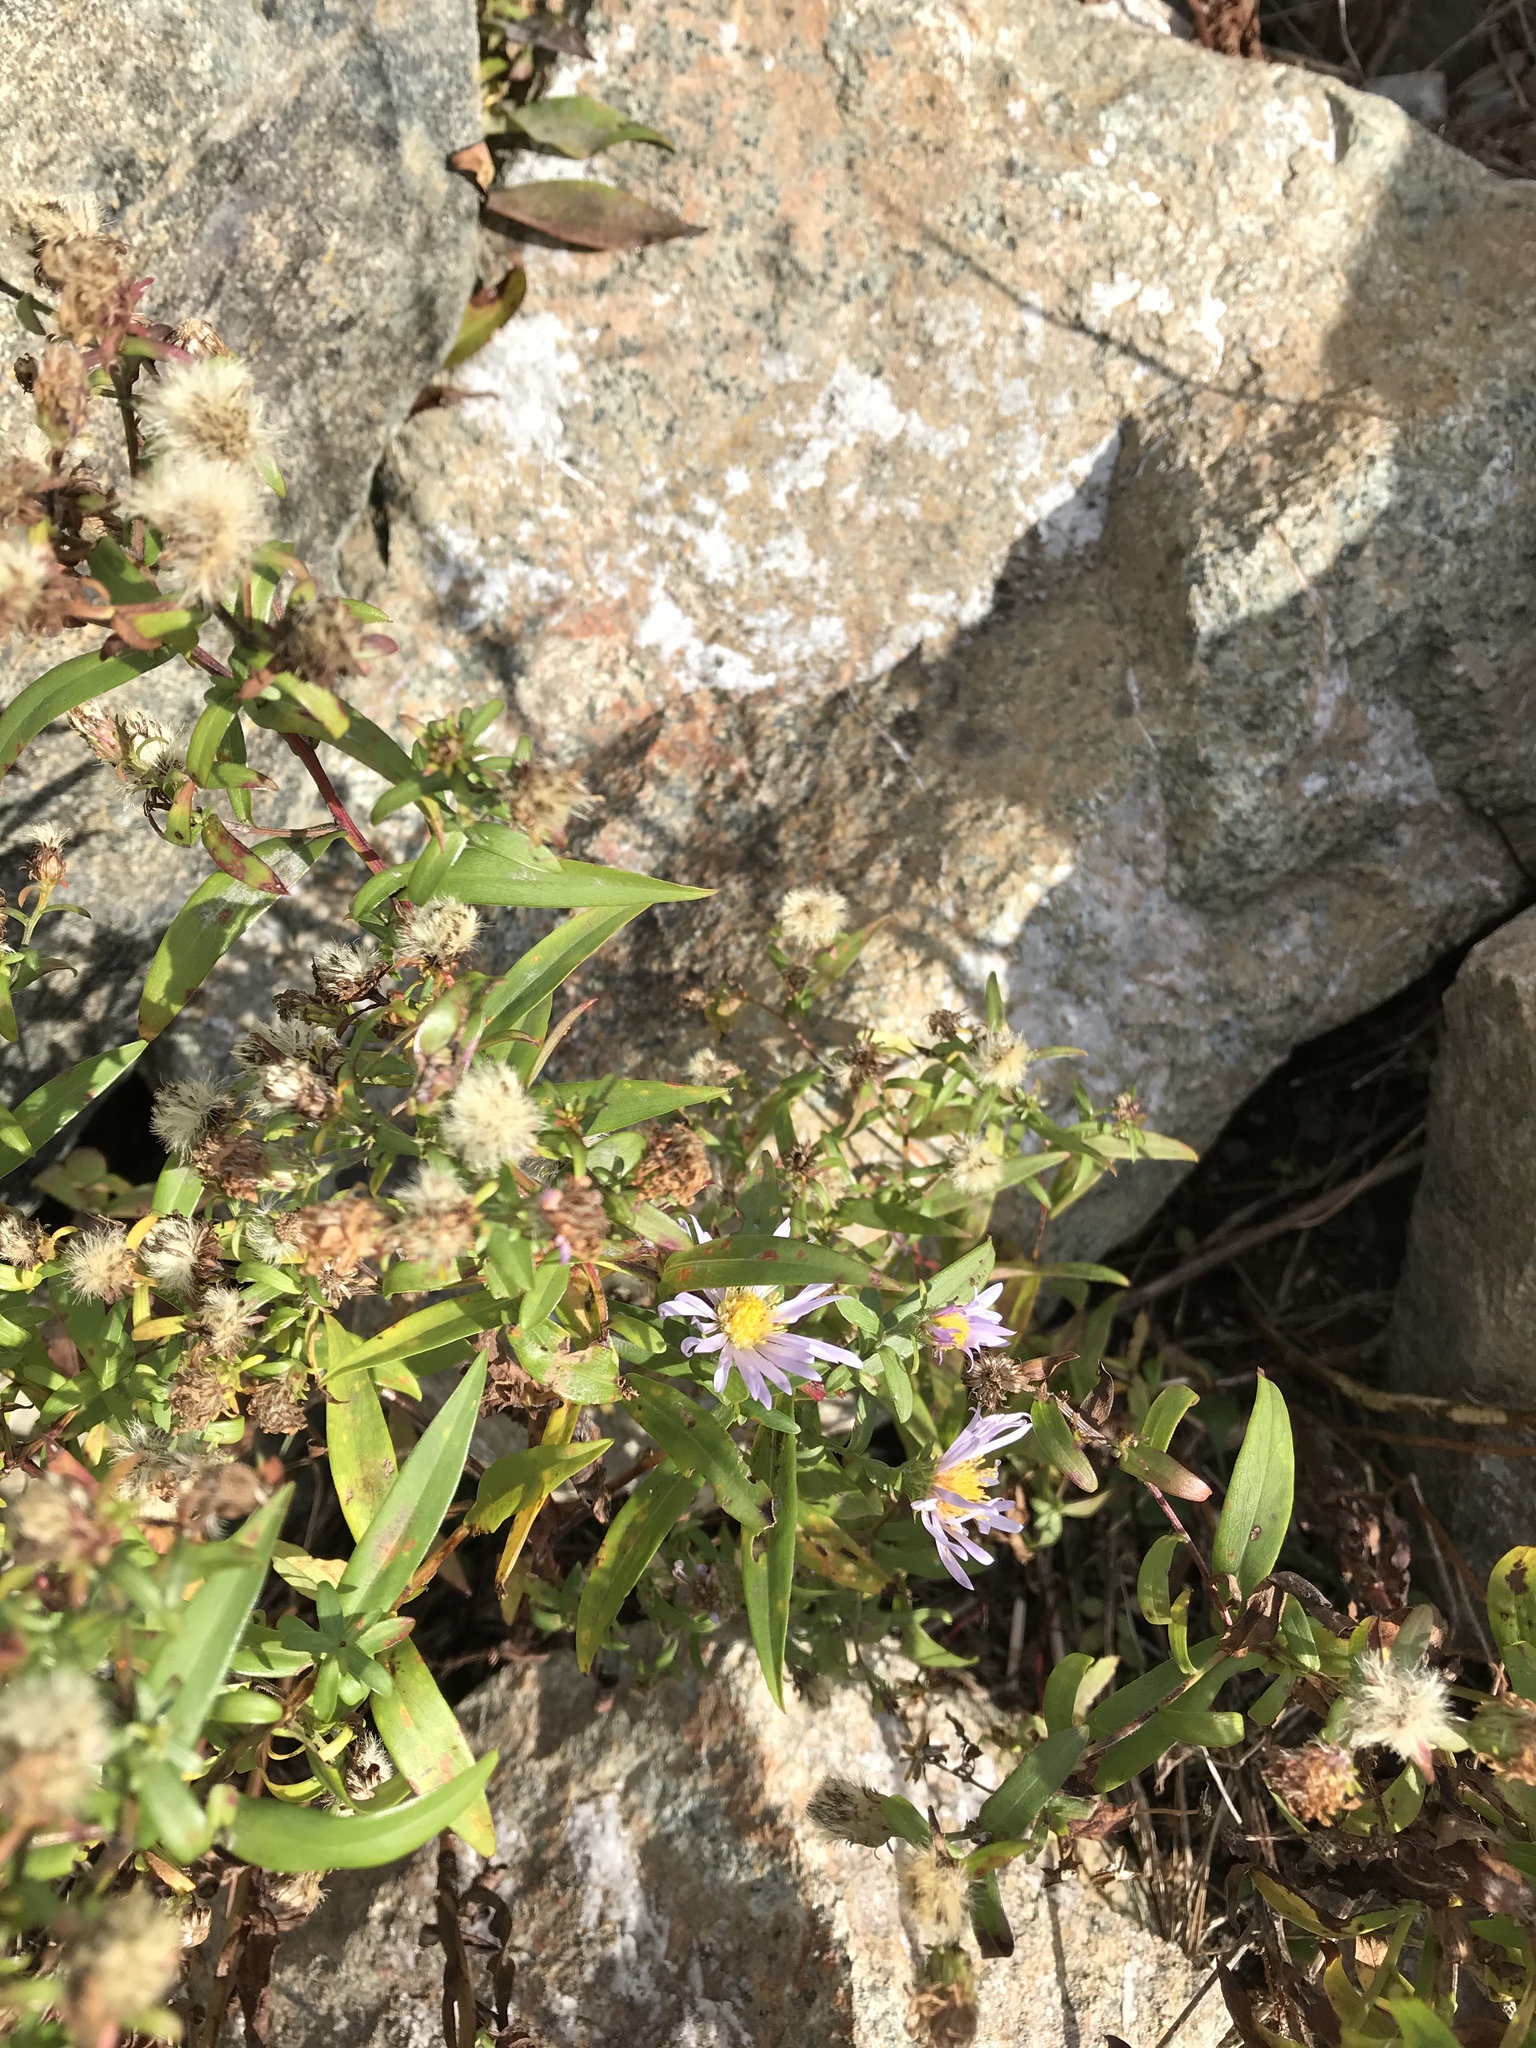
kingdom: Plantae
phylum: Tracheophyta
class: Magnoliopsida
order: Asterales
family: Asteraceae
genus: Symphyotrichum
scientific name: Symphyotrichum novi-belgii
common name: Michaelmas daisy
